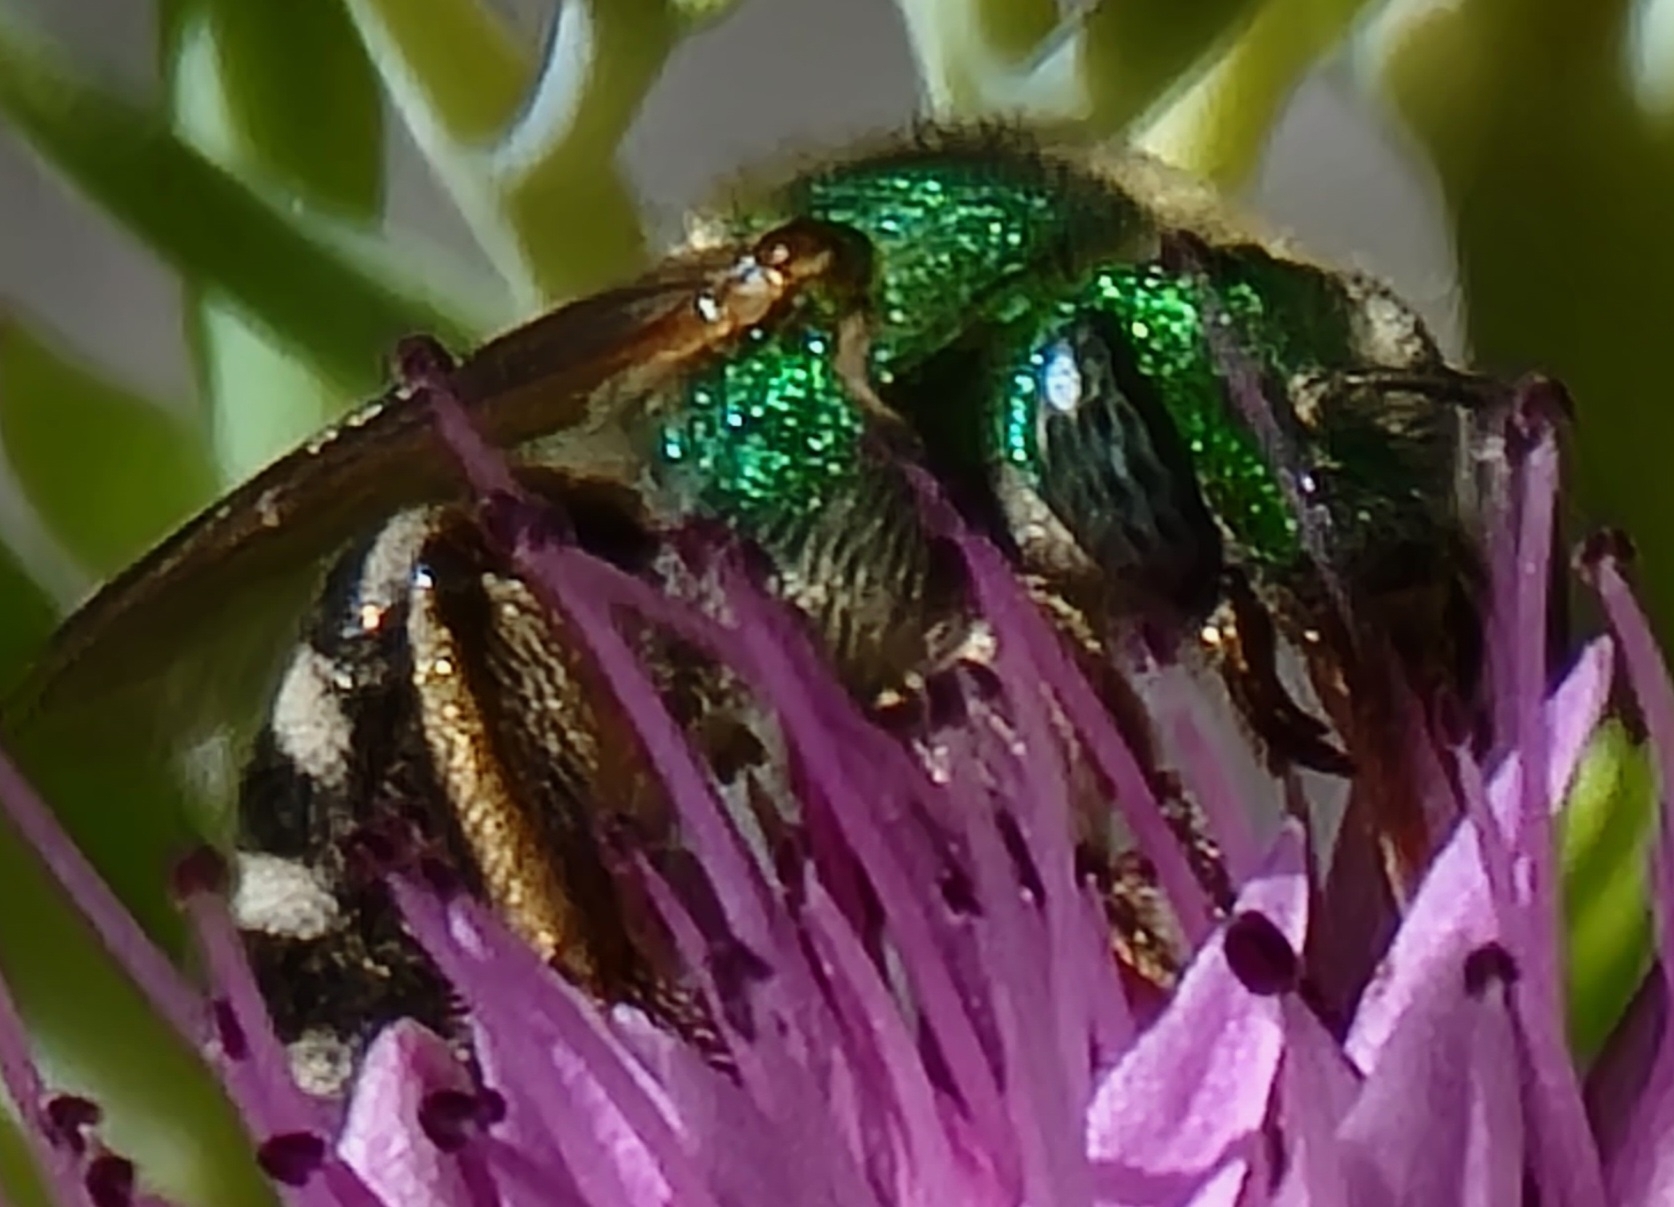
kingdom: Animalia
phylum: Arthropoda
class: Insecta
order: Hymenoptera
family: Halictidae
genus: Agapostemon
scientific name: Agapostemon virescens
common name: Bicolored striped sweat bee
